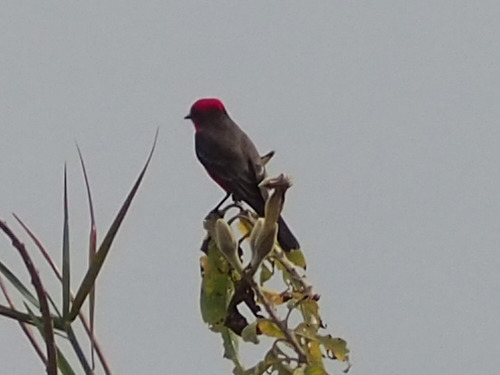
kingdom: Animalia
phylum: Chordata
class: Aves
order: Passeriformes
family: Tyrannidae
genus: Pyrocephalus
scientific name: Pyrocephalus rubinus
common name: Vermilion flycatcher
